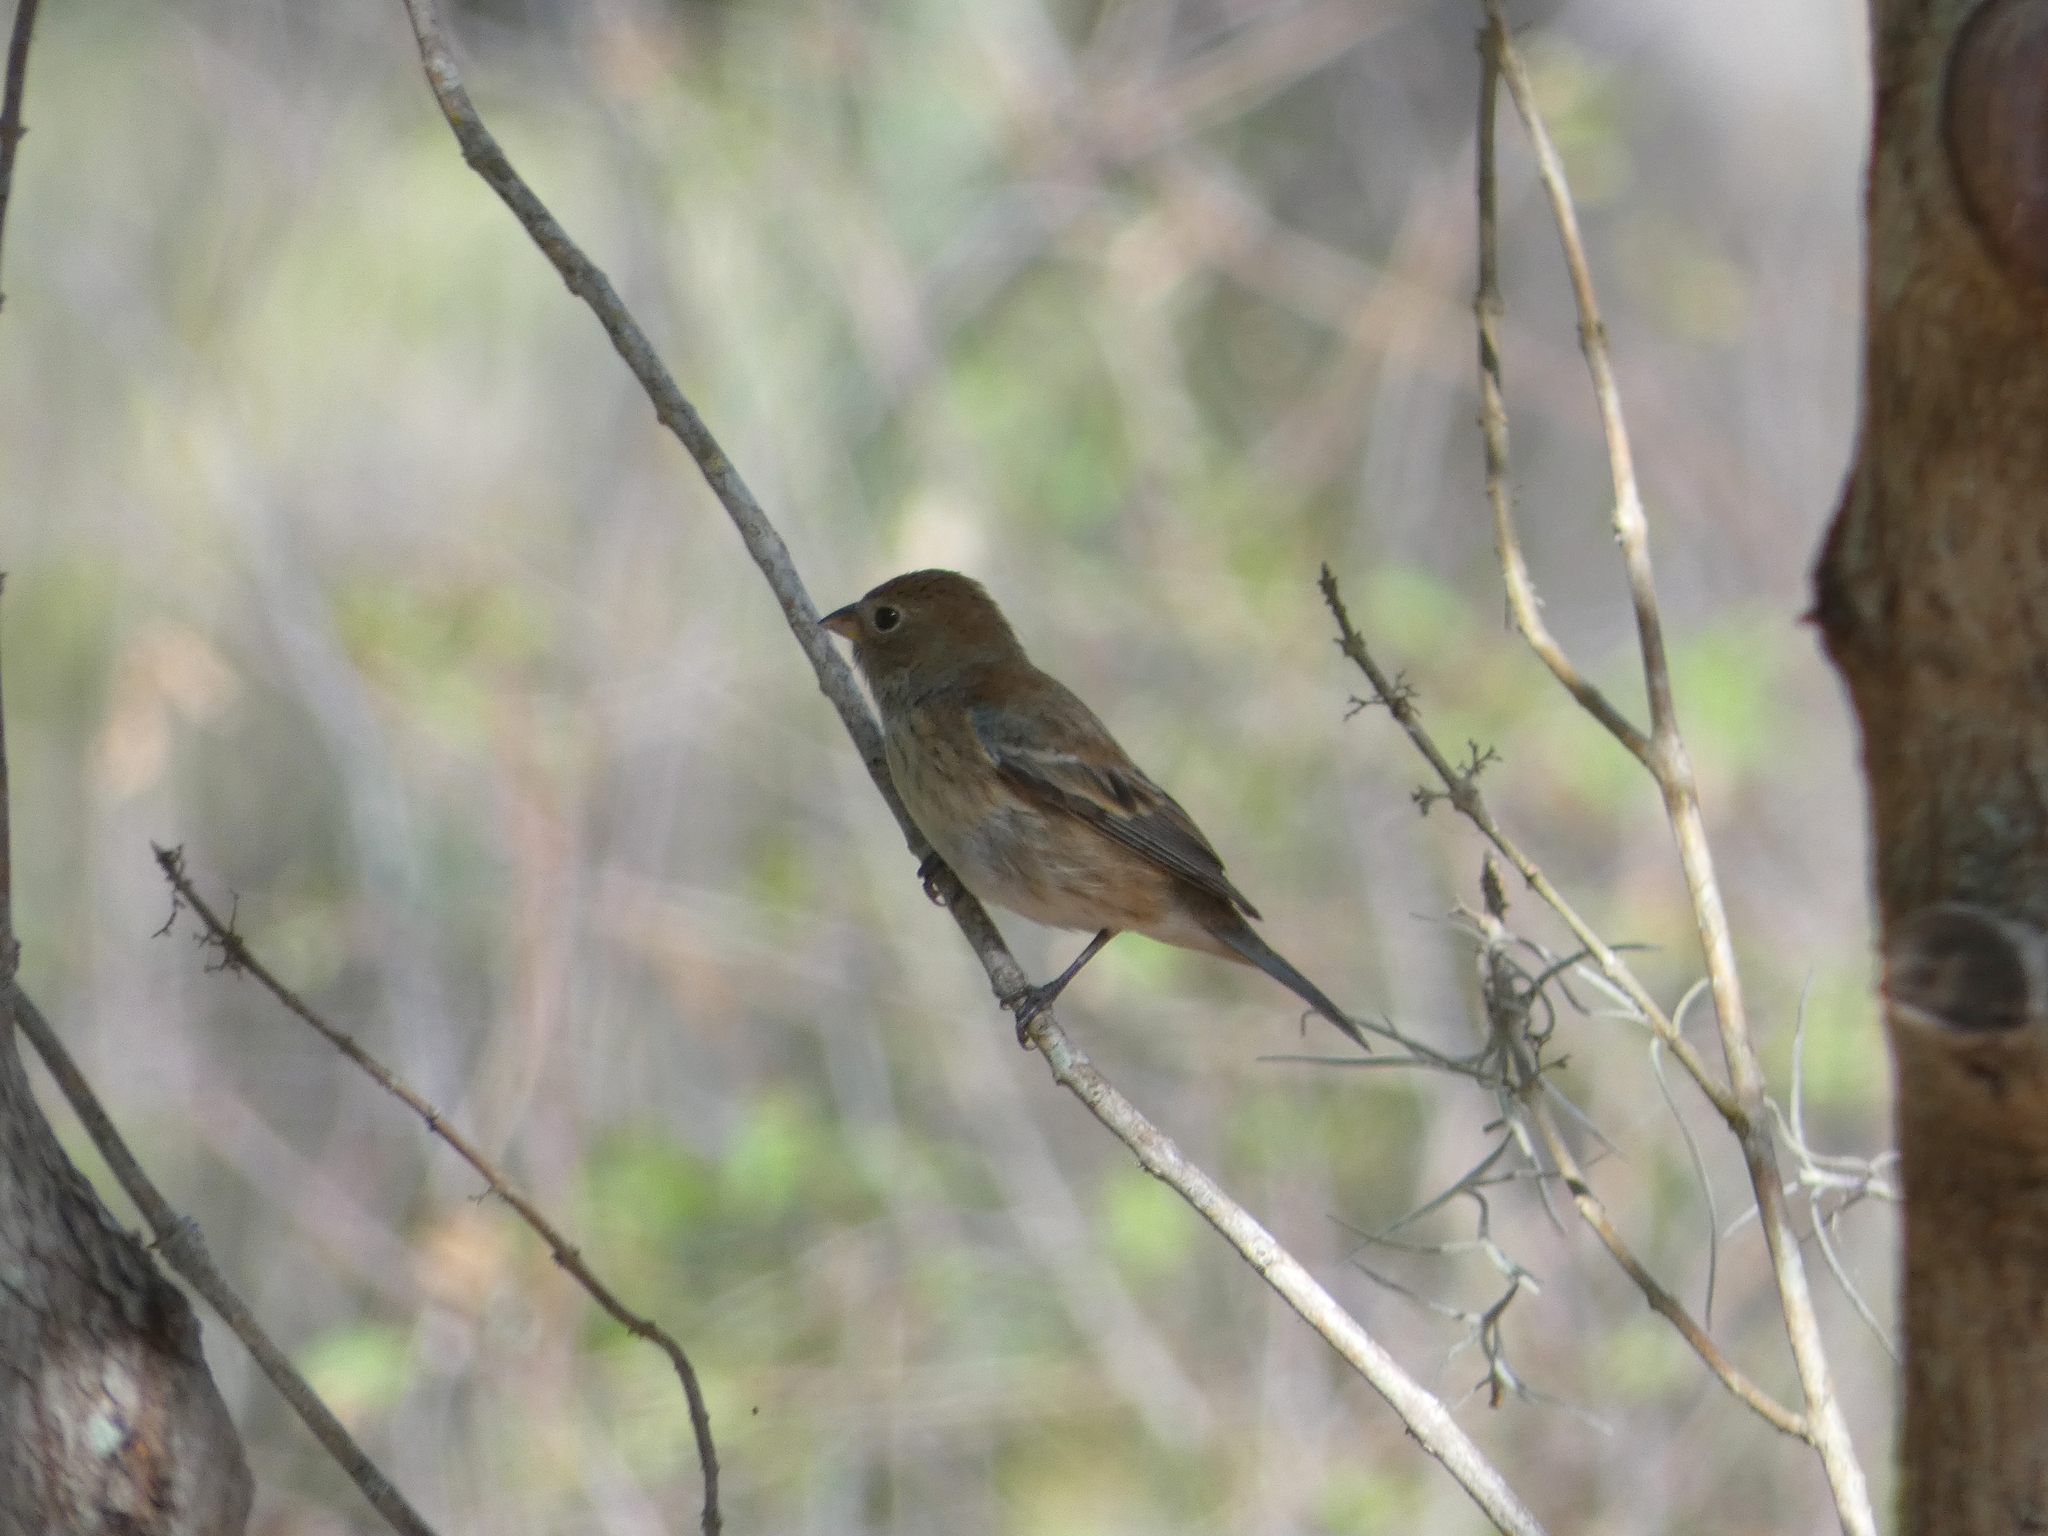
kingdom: Animalia
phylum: Chordata
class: Aves
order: Passeriformes
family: Cardinalidae
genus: Passerina
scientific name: Passerina cyanea
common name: Indigo bunting
